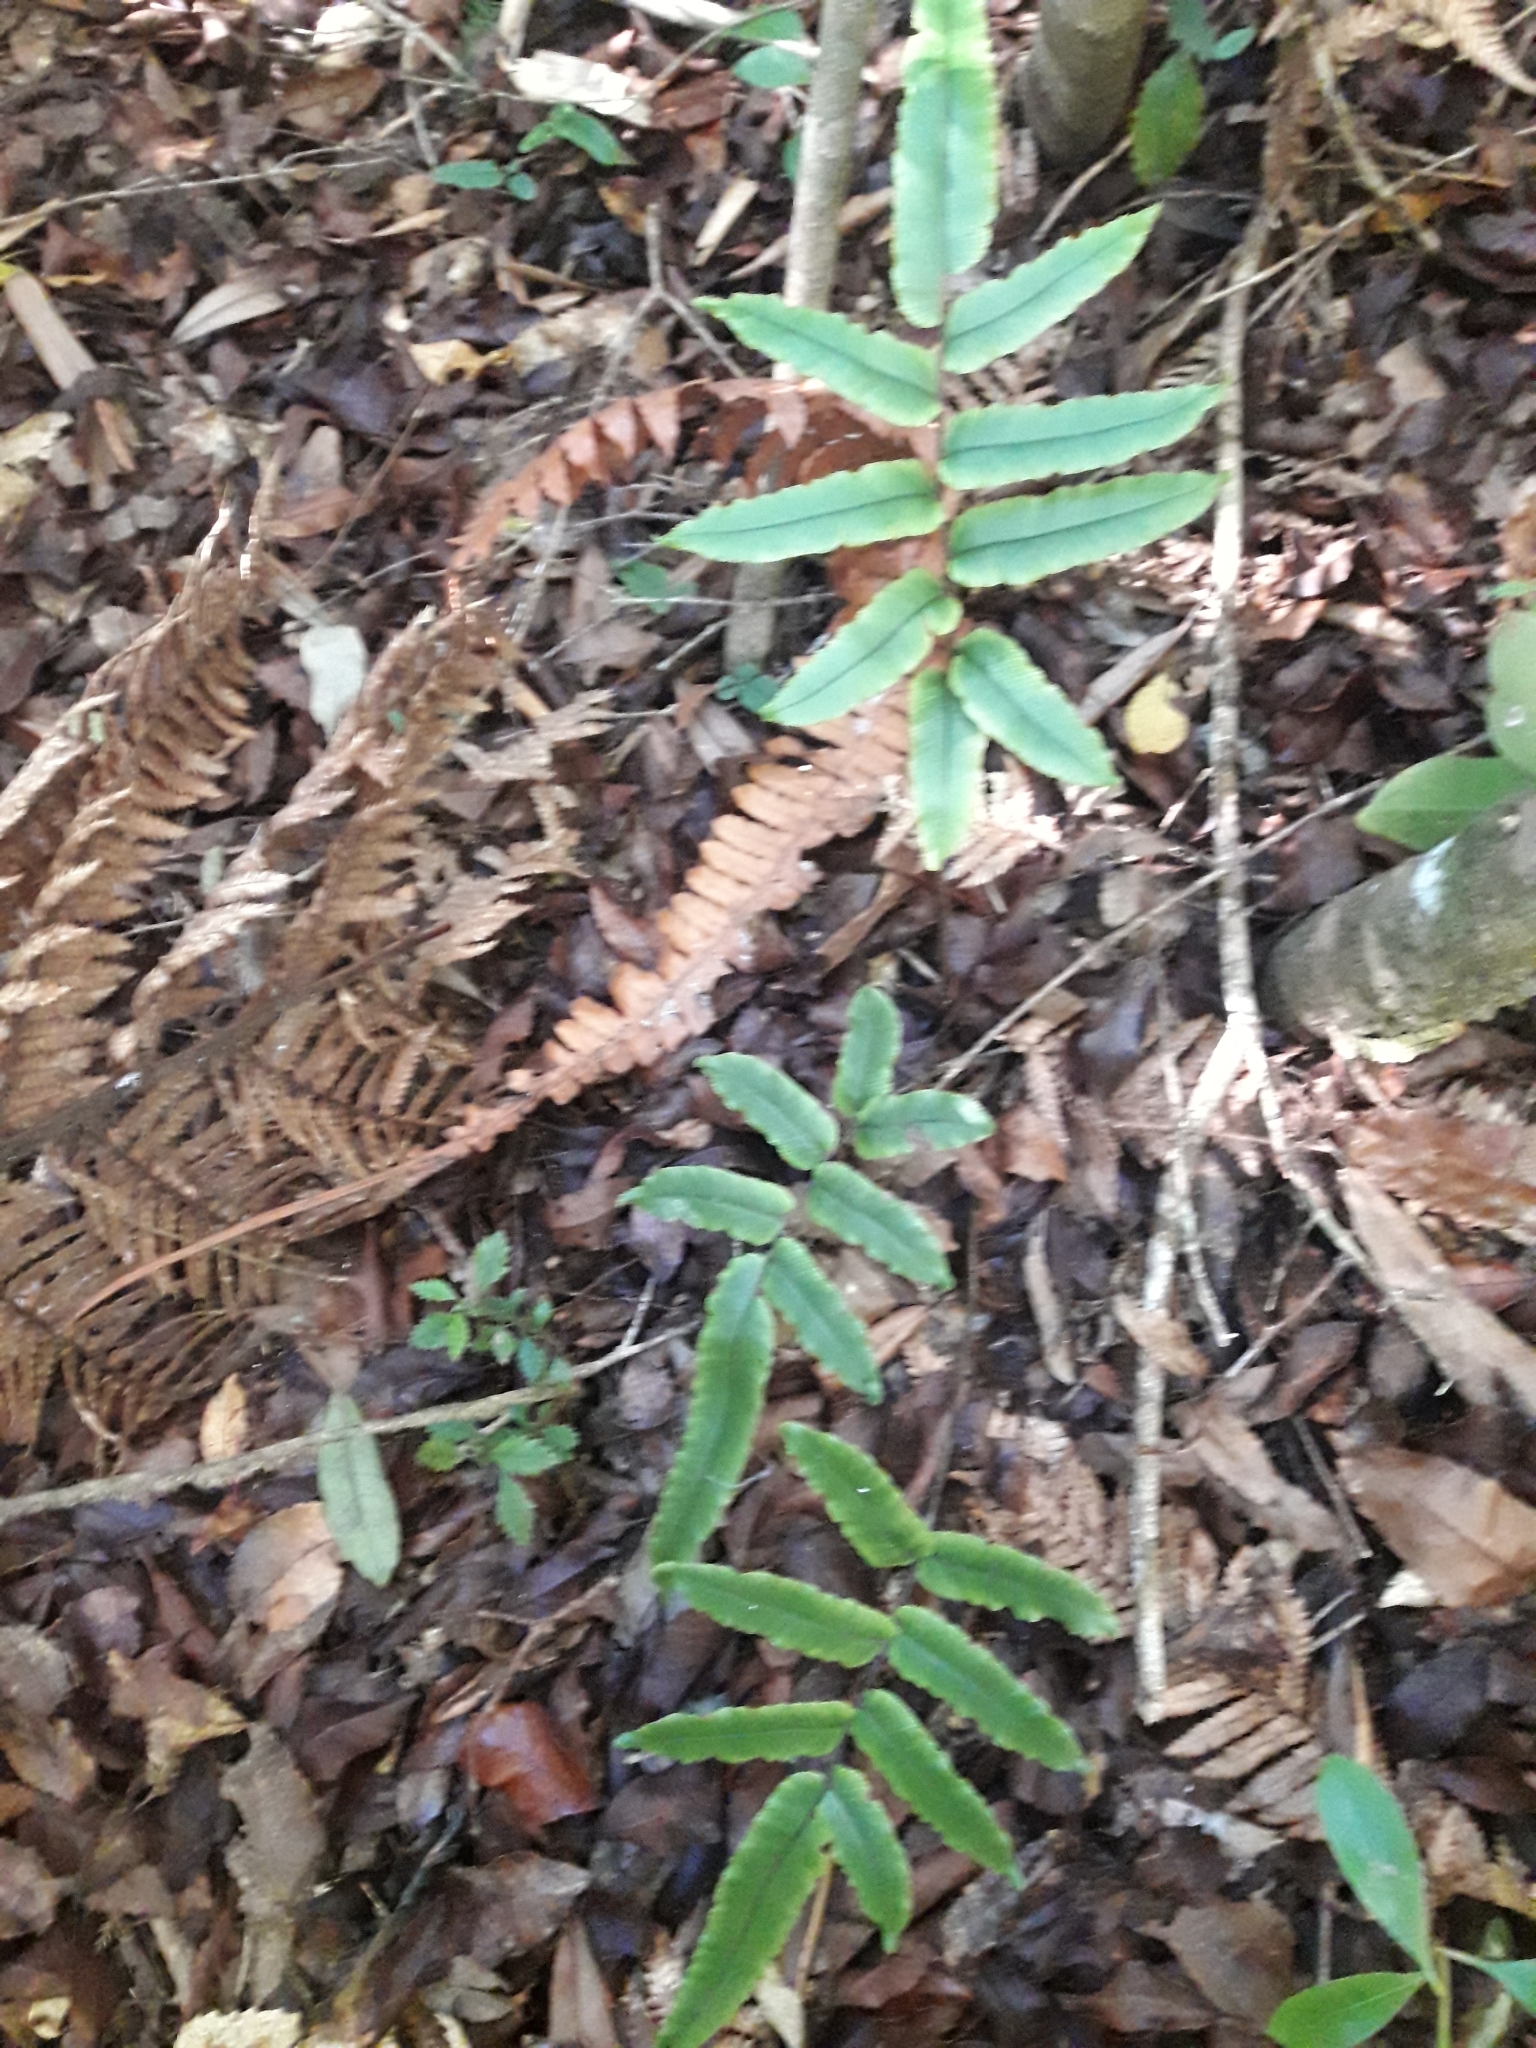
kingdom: Plantae
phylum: Tracheophyta
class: Polypodiopsida
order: Polypodiales
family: Blechnaceae
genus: Parablechnum
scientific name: Parablechnum procerum
